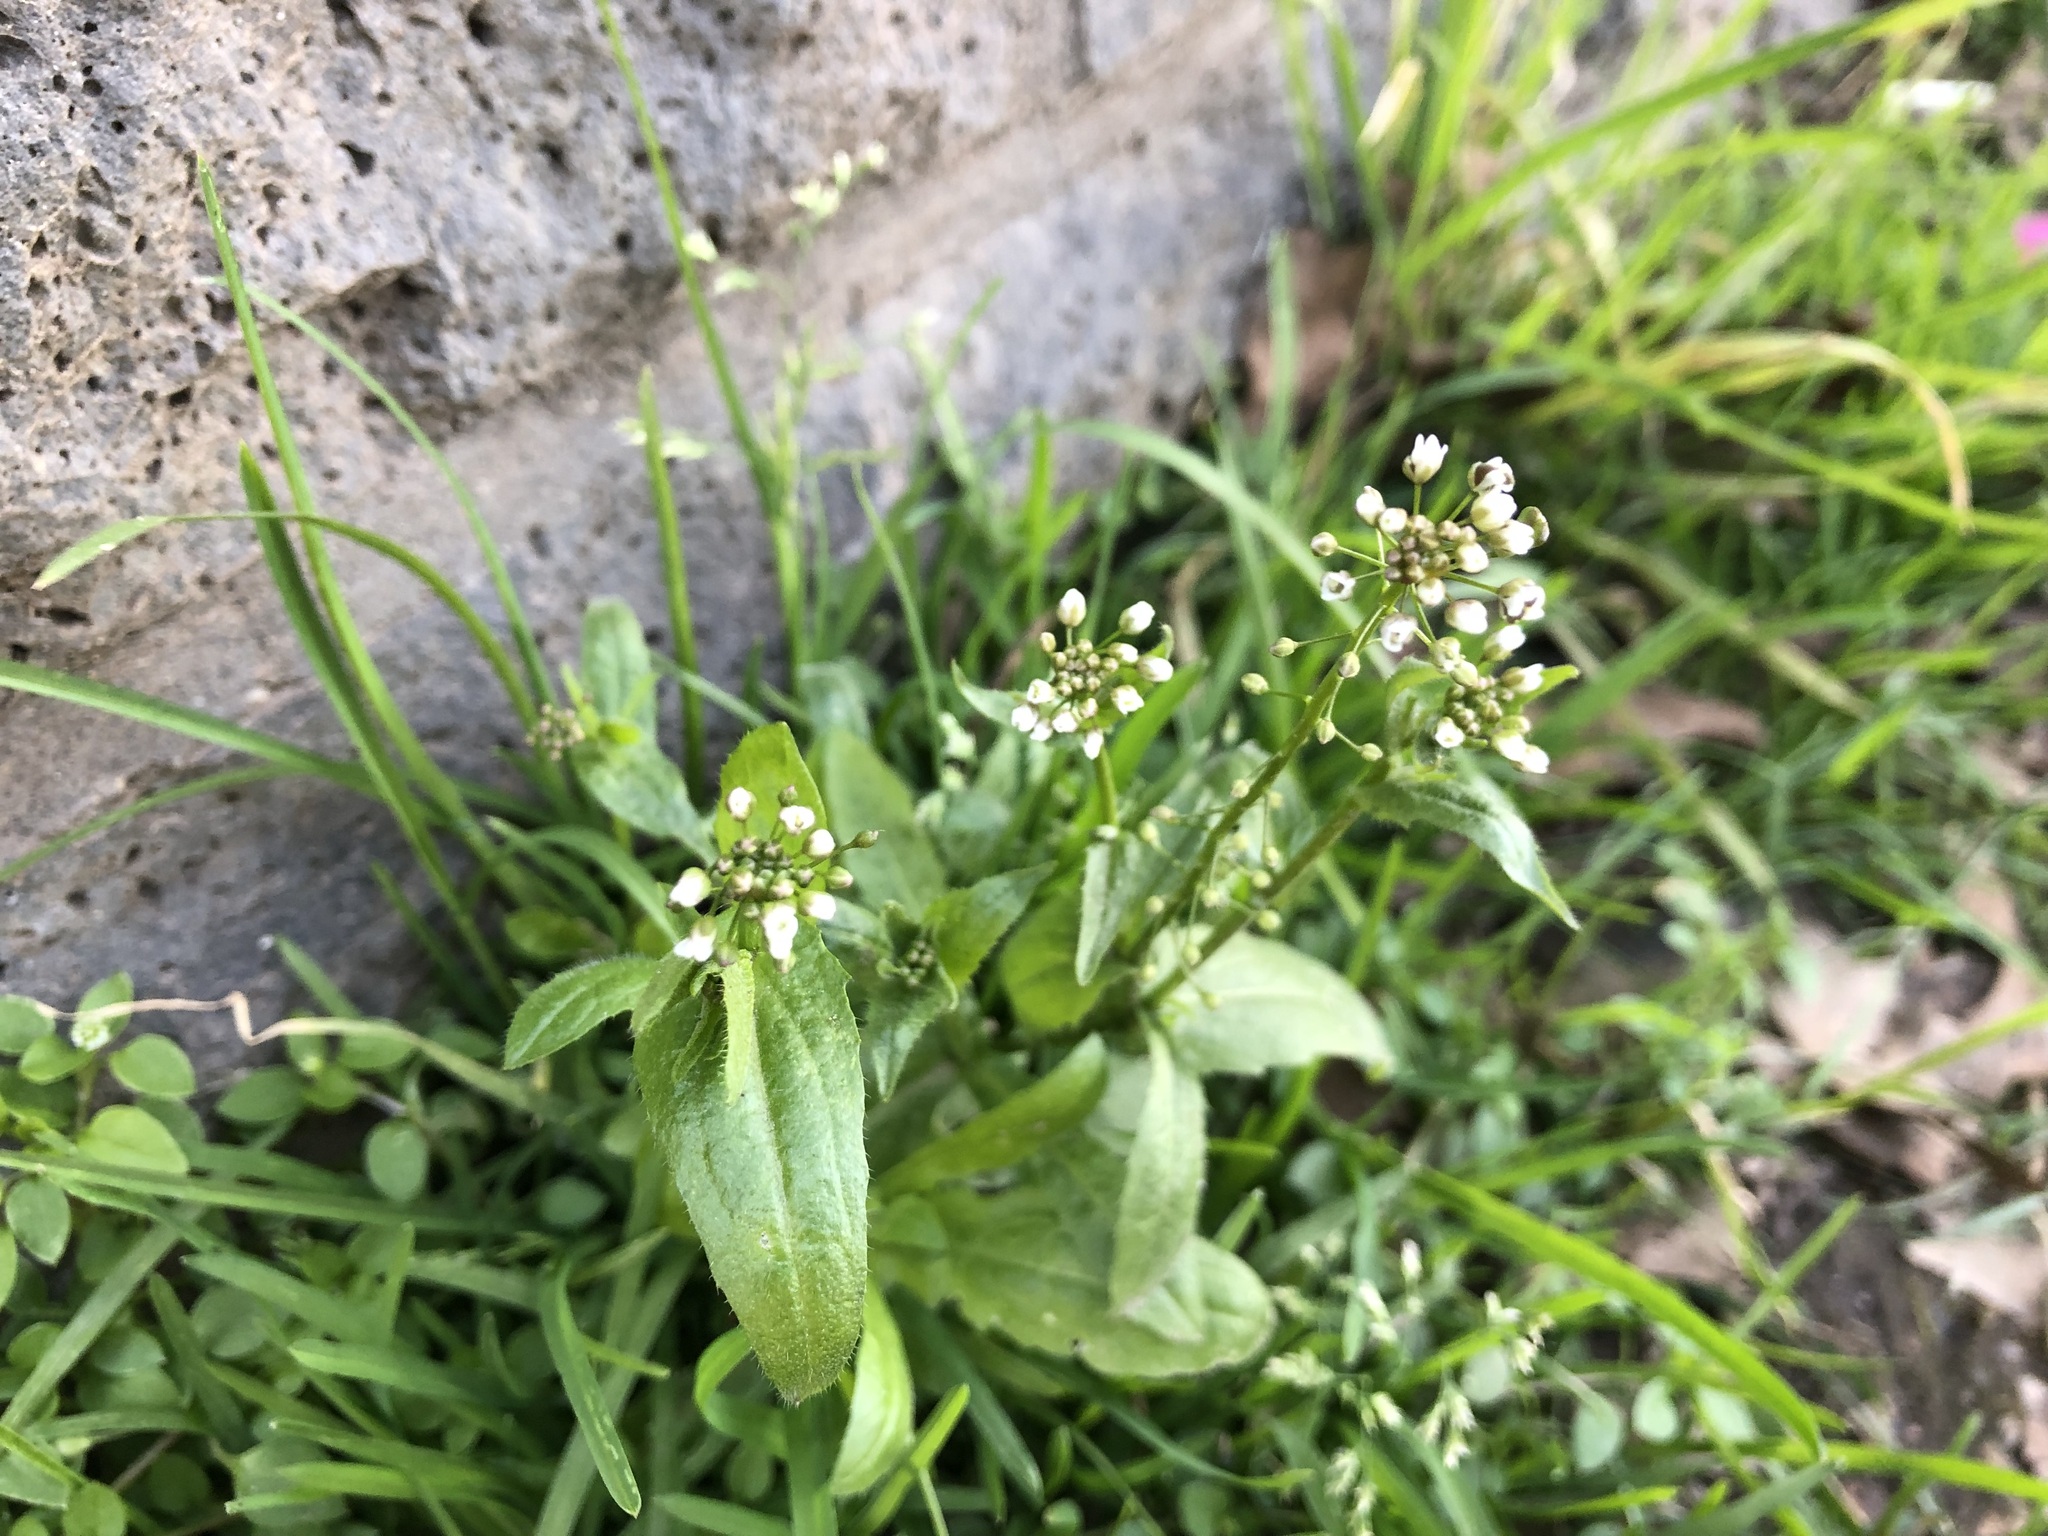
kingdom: Plantae
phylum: Tracheophyta
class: Magnoliopsida
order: Brassicales
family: Brassicaceae
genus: Capsella
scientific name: Capsella bursa-pastoris
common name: Shepherd's purse
